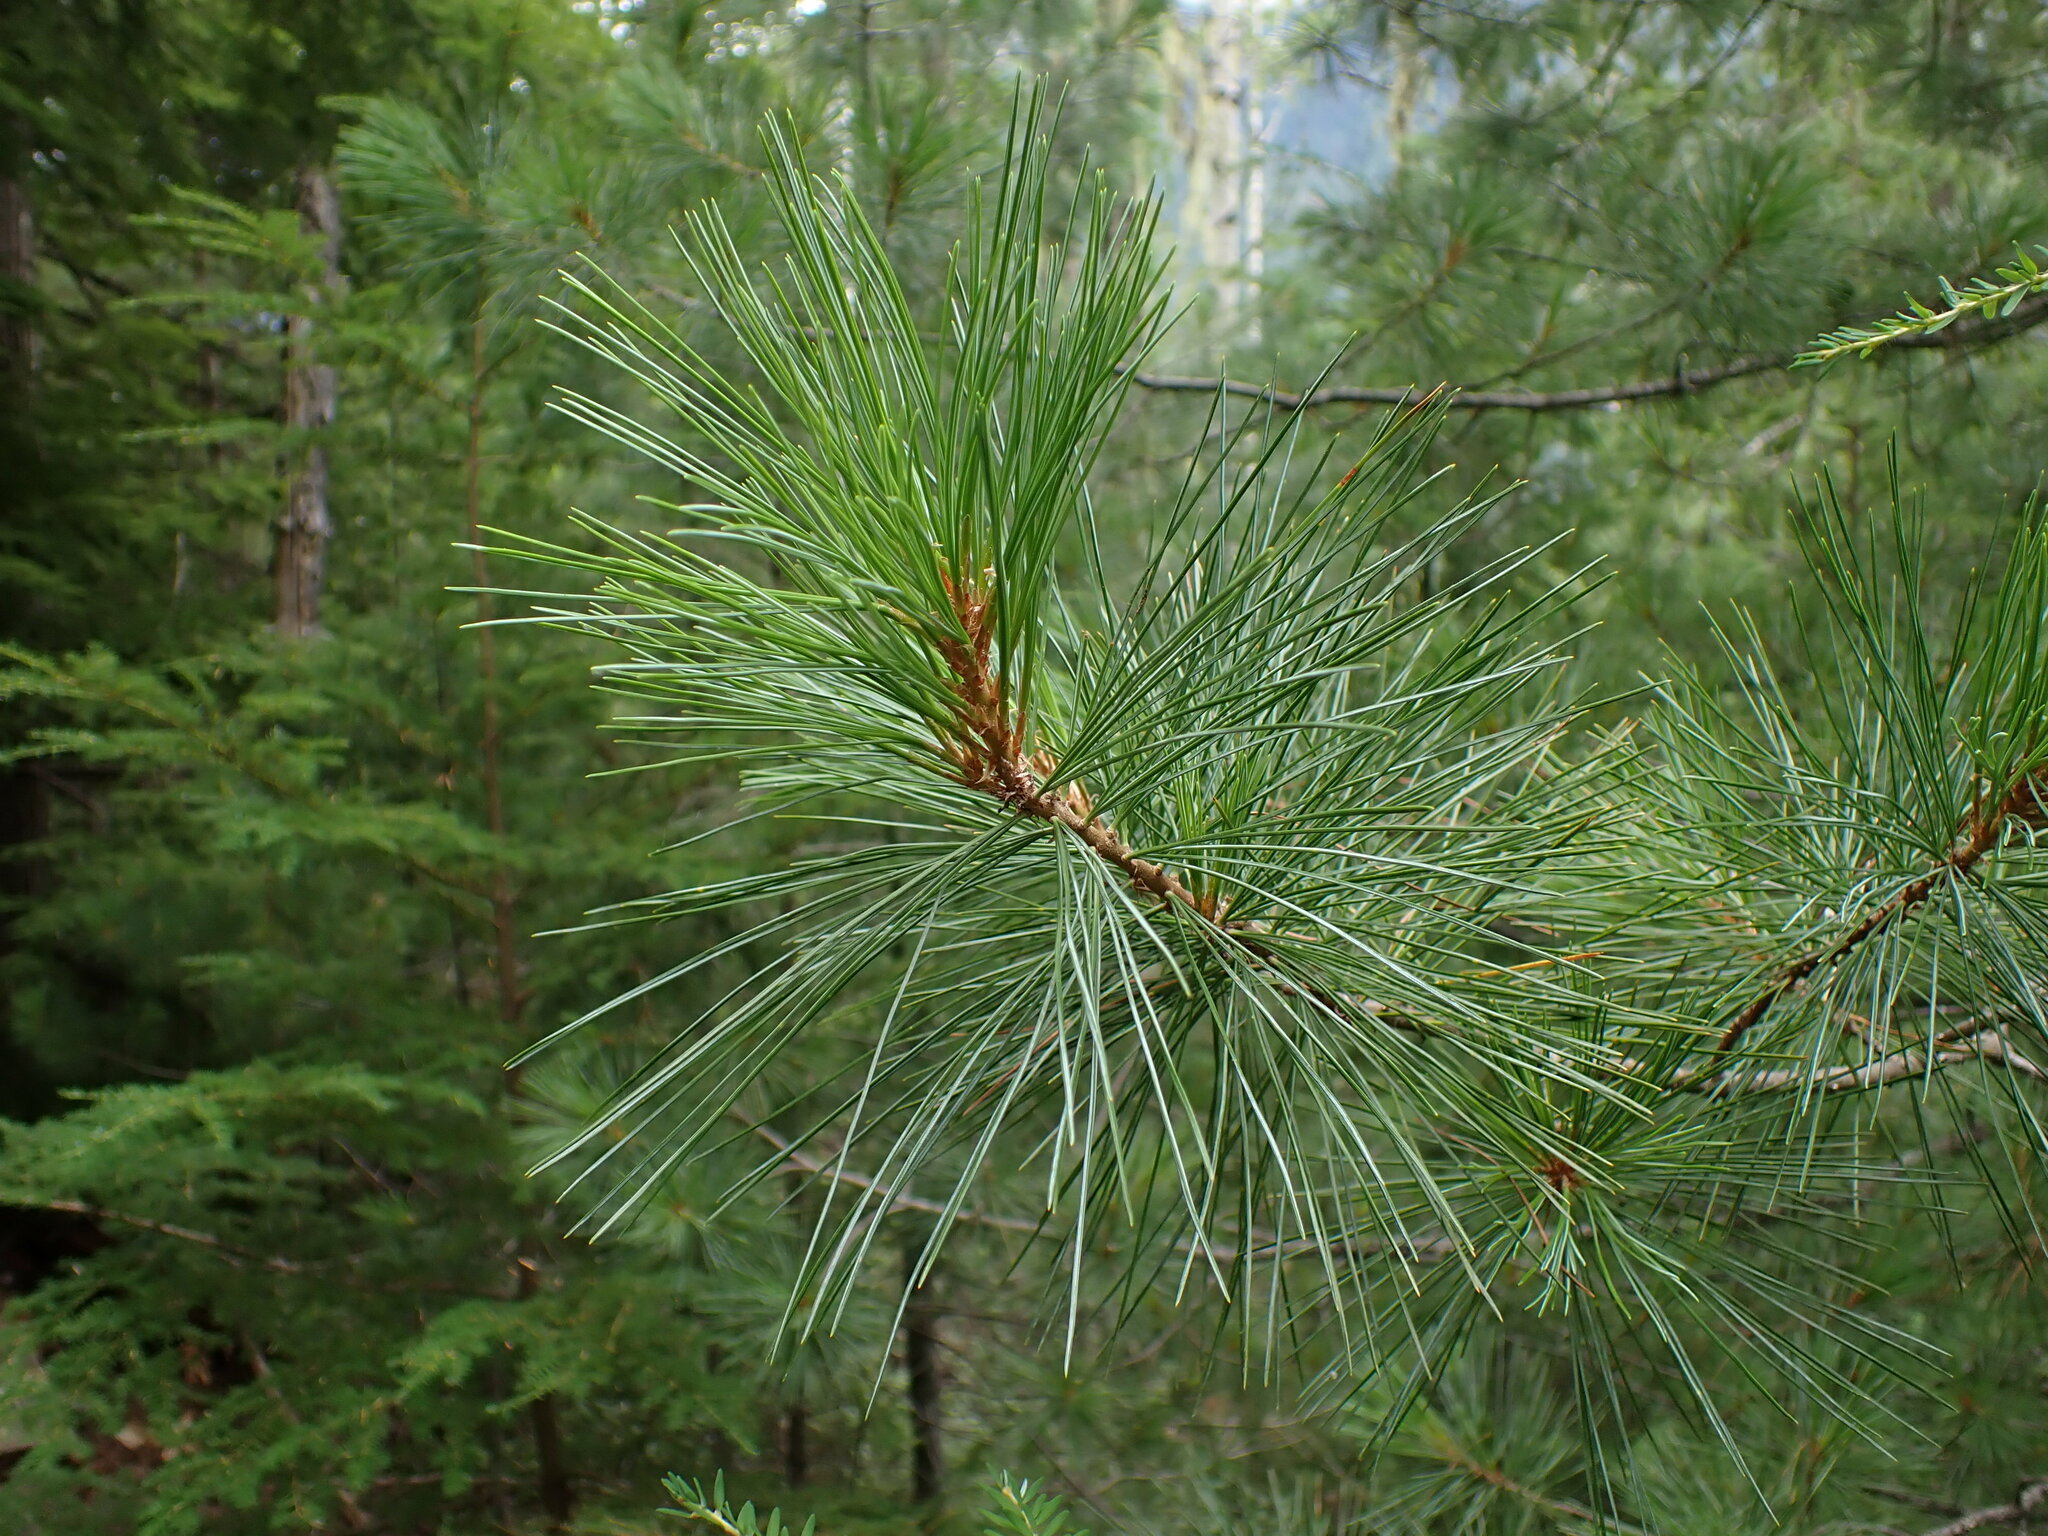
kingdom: Plantae
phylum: Tracheophyta
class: Pinopsida
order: Pinales
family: Pinaceae
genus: Pinus
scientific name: Pinus monticola
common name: Western white pine
